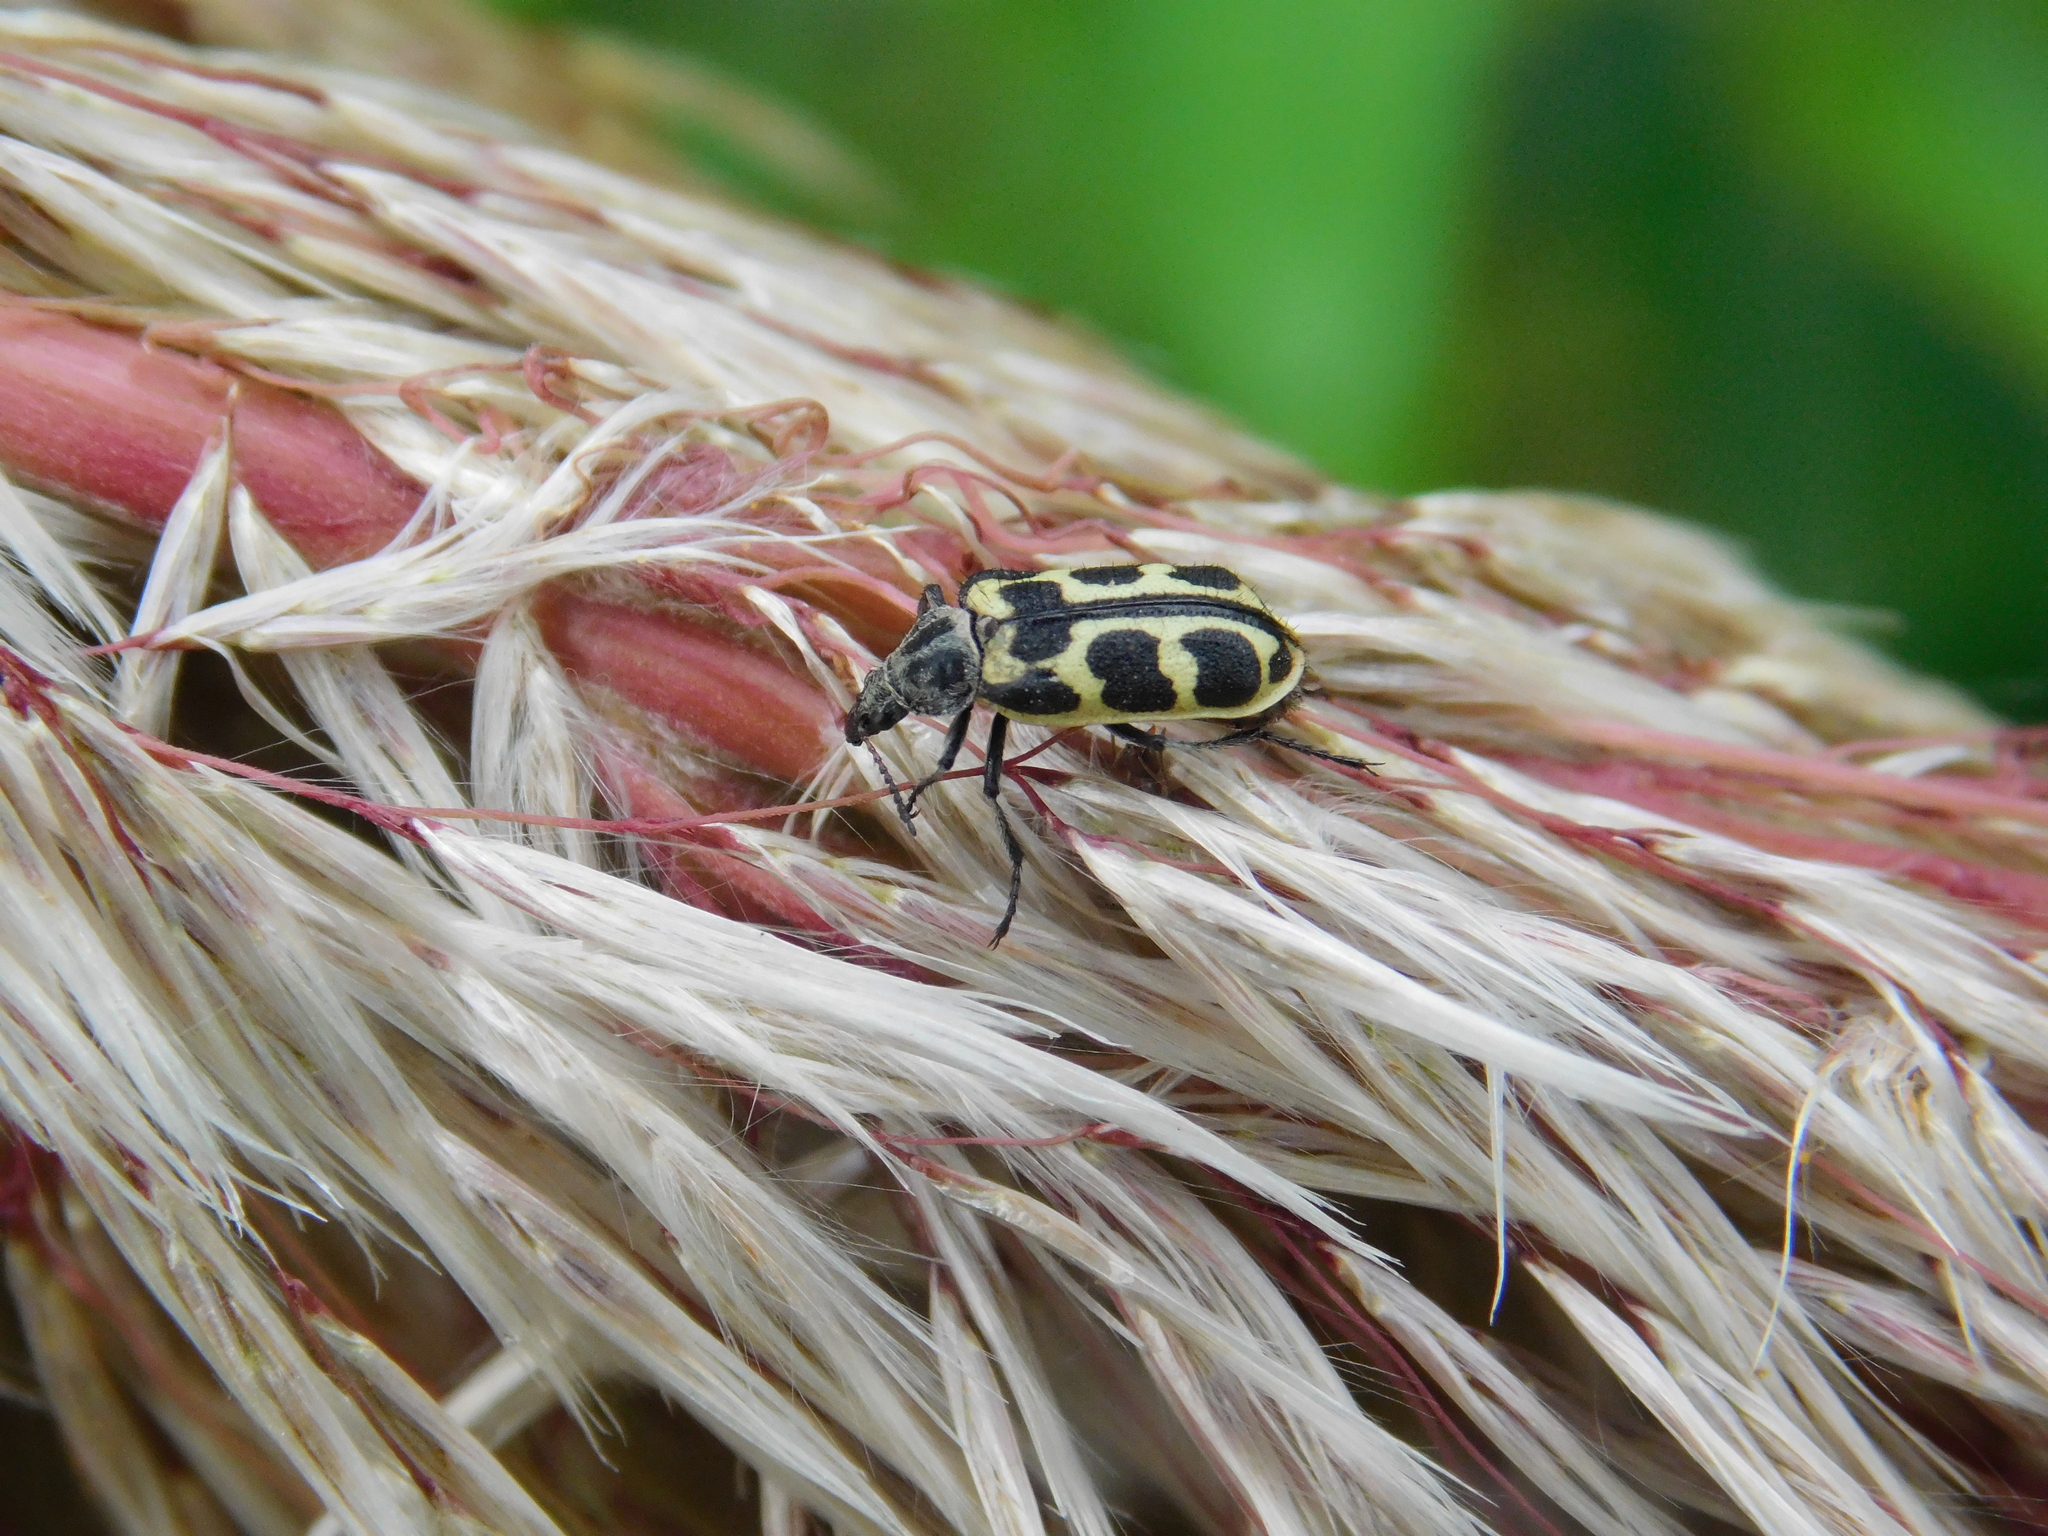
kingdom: Animalia
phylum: Arthropoda
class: Insecta
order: Coleoptera
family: Melyridae
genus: Astylus
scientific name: Astylus atromaculatus
